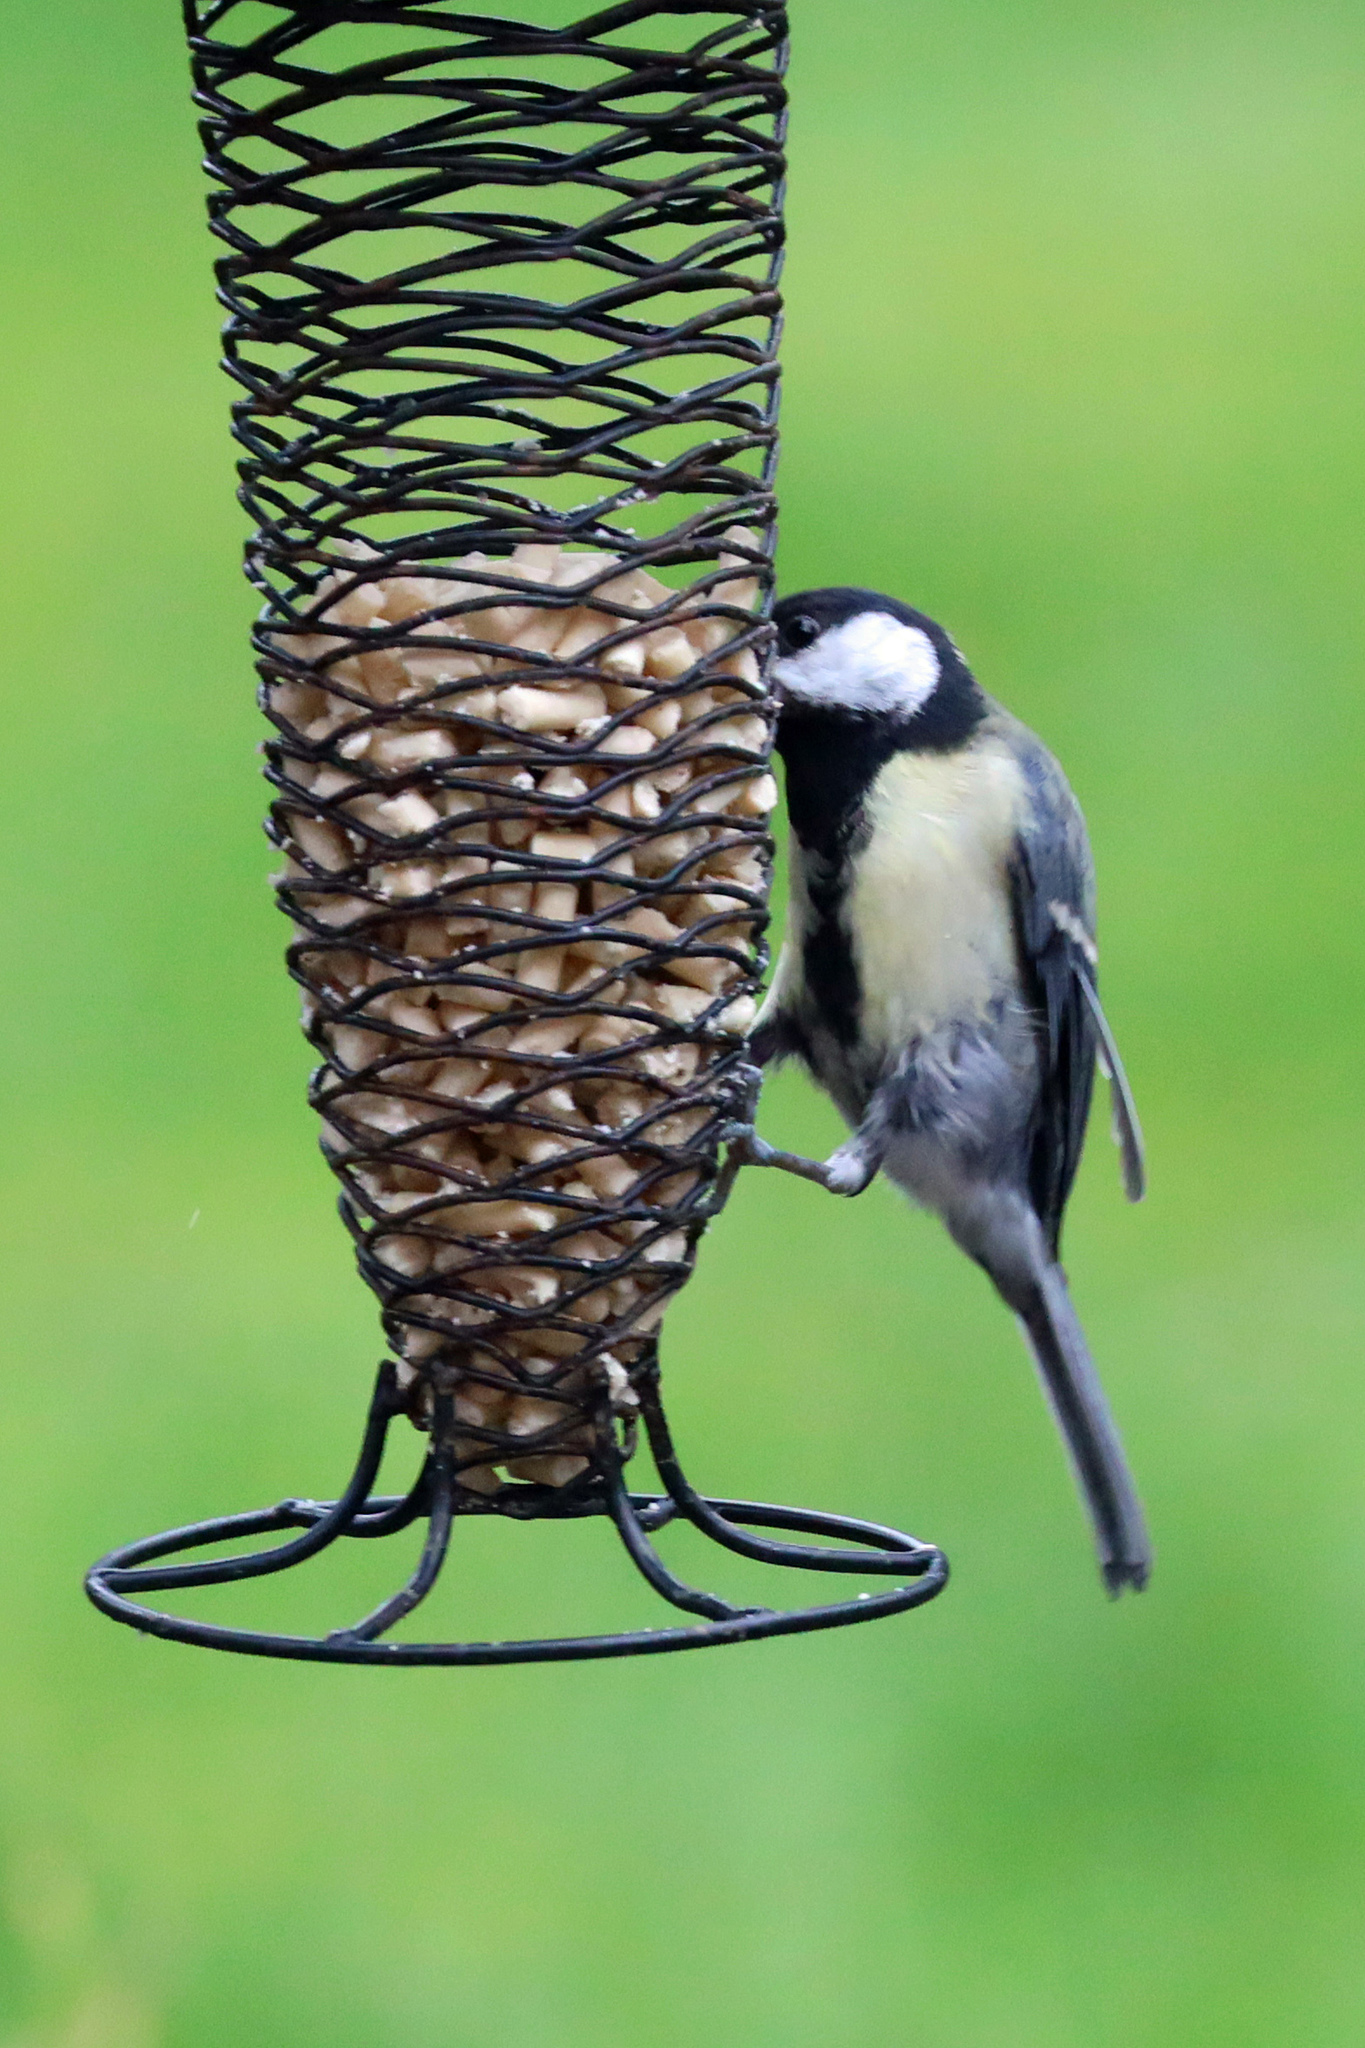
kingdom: Animalia
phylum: Chordata
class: Aves
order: Passeriformes
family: Paridae
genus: Parus
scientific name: Parus major
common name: Great tit
